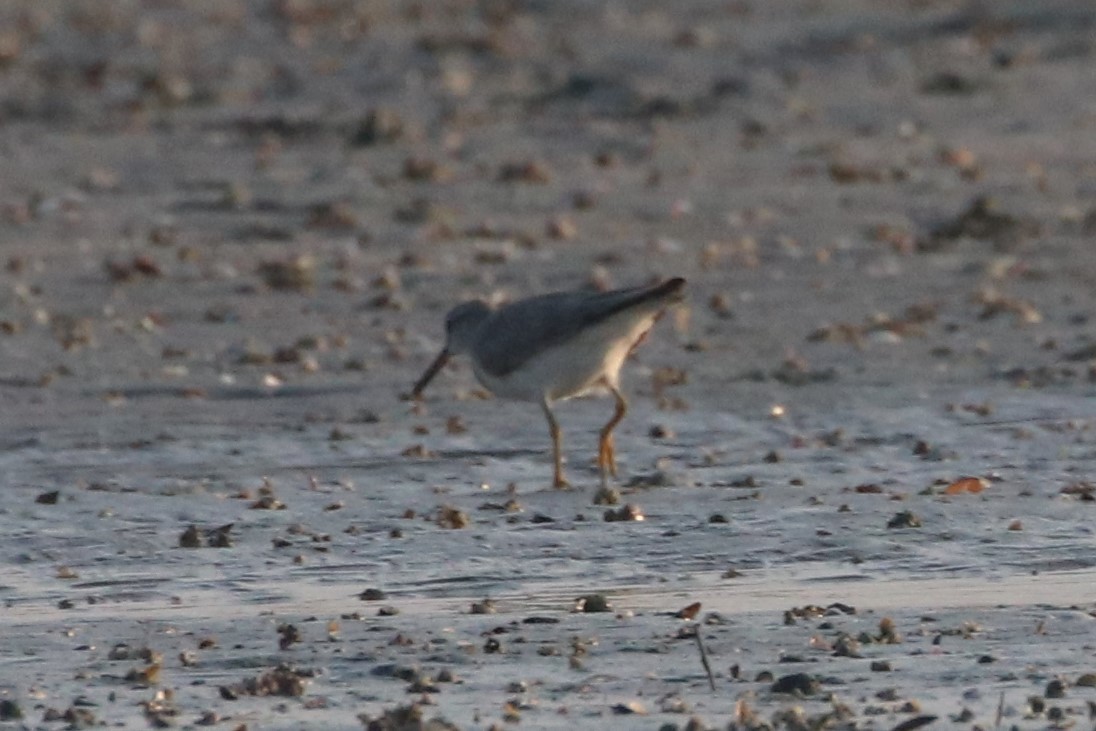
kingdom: Animalia
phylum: Chordata
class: Aves
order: Charadriiformes
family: Scolopacidae
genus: Tringa
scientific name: Tringa brevipes
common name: Grey-tailed tattler
